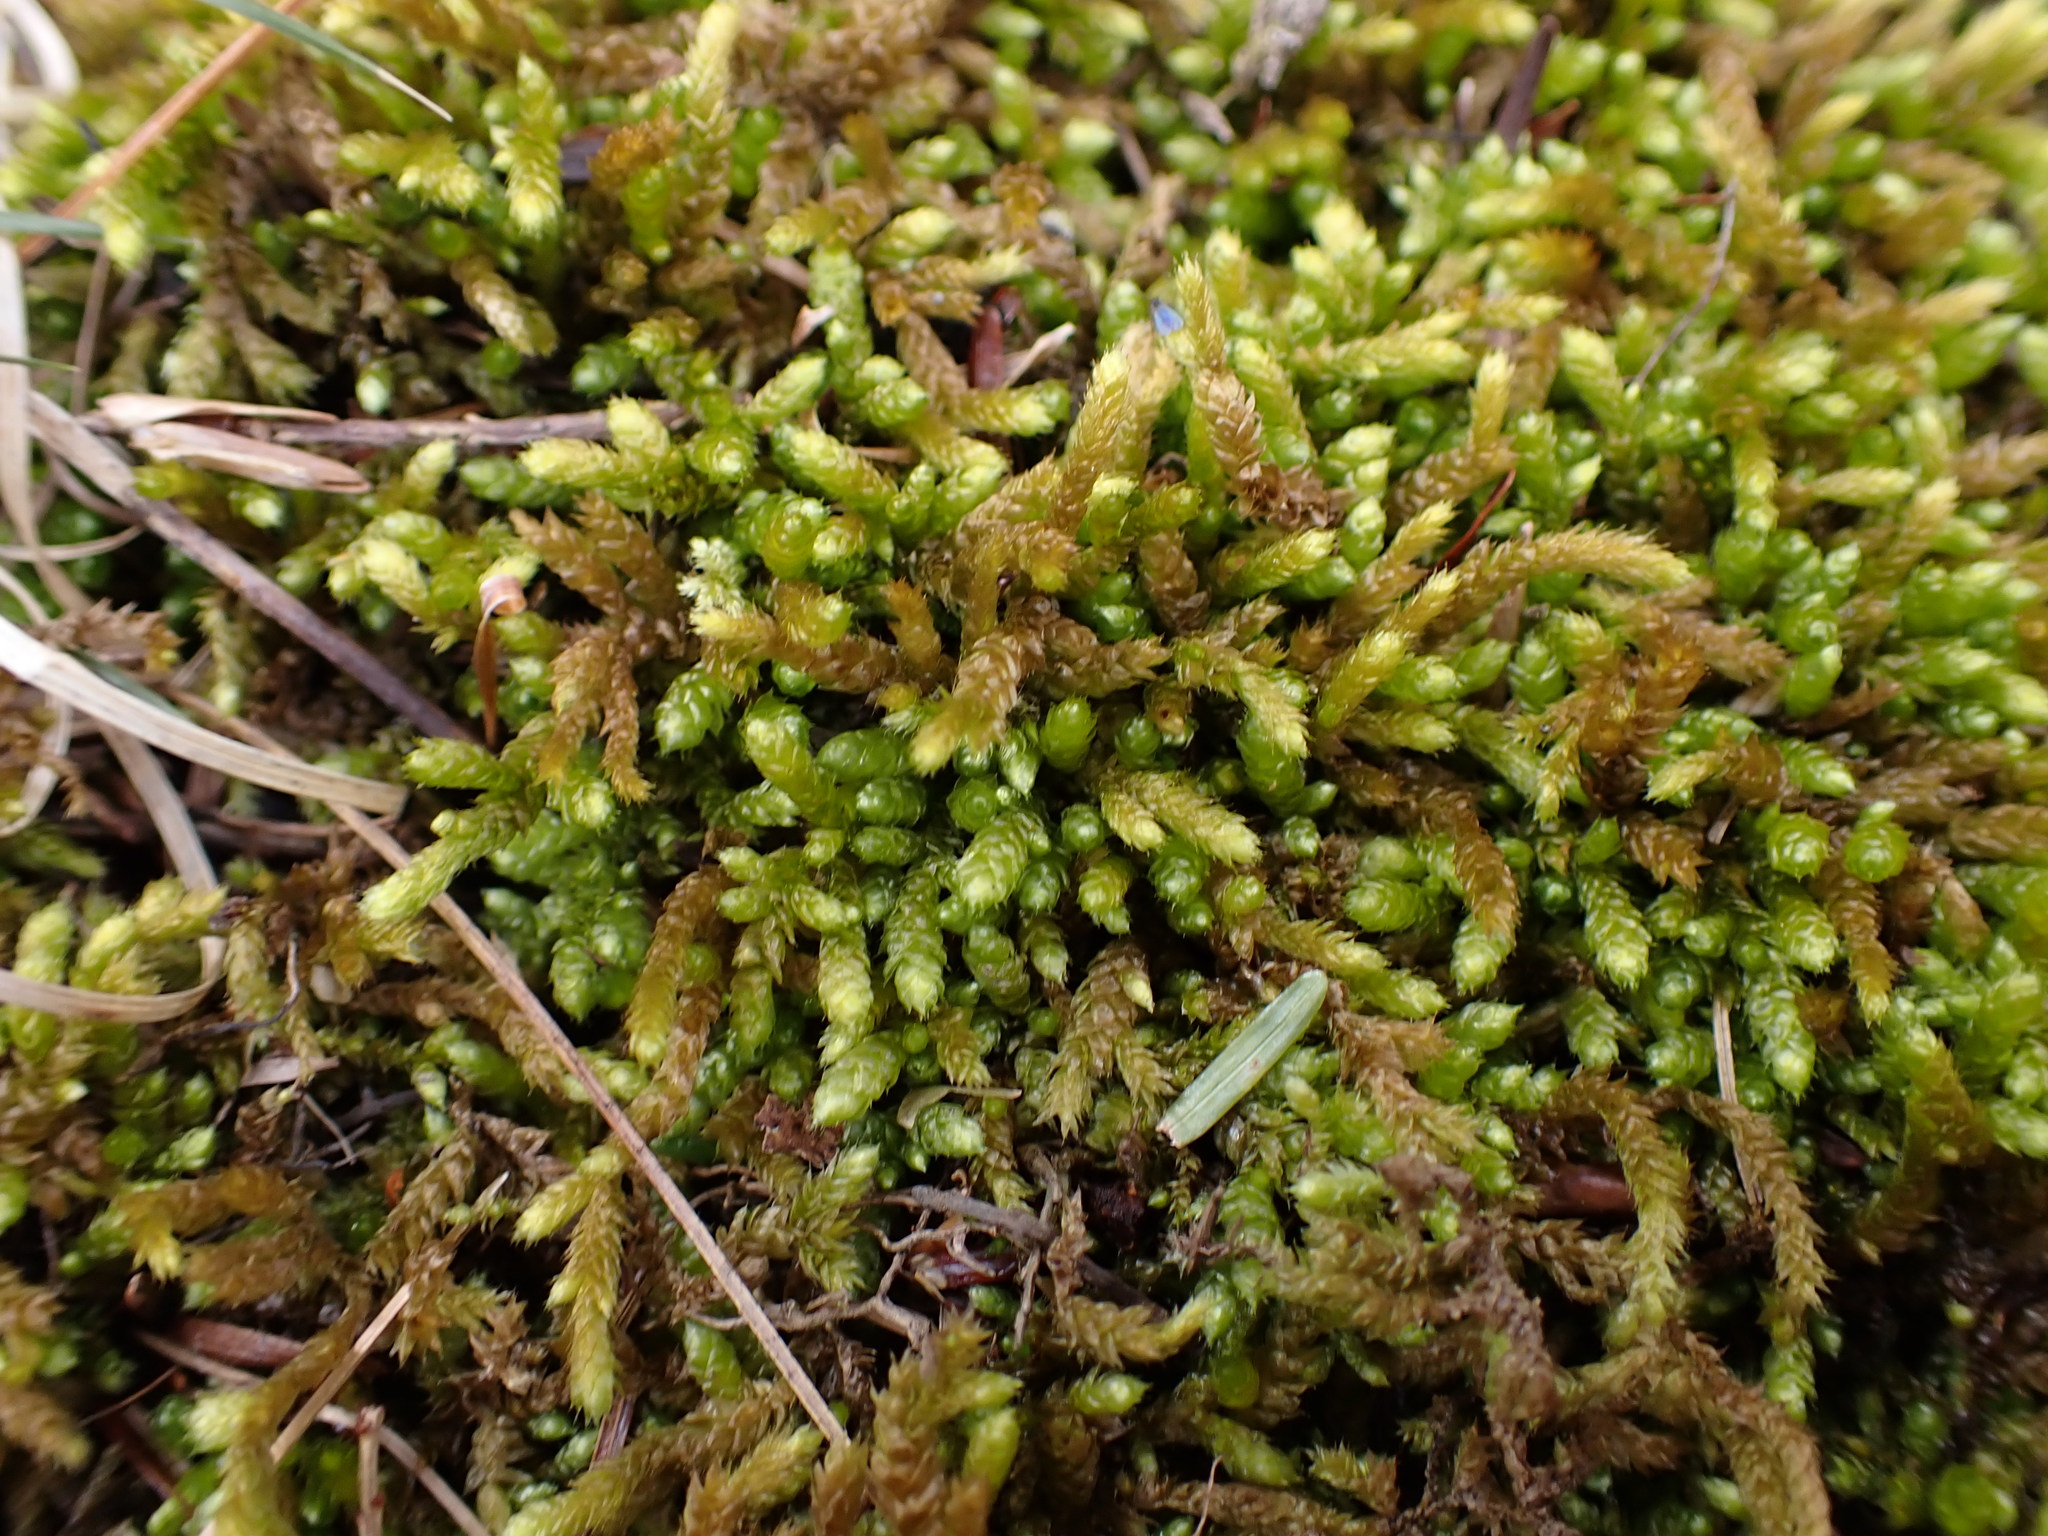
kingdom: Plantae
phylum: Bryophyta
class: Bryopsida
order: Hypnales
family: Brachytheciaceae
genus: Bryoandersonia
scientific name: Bryoandersonia illecebra
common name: Spoon-leaved moss
